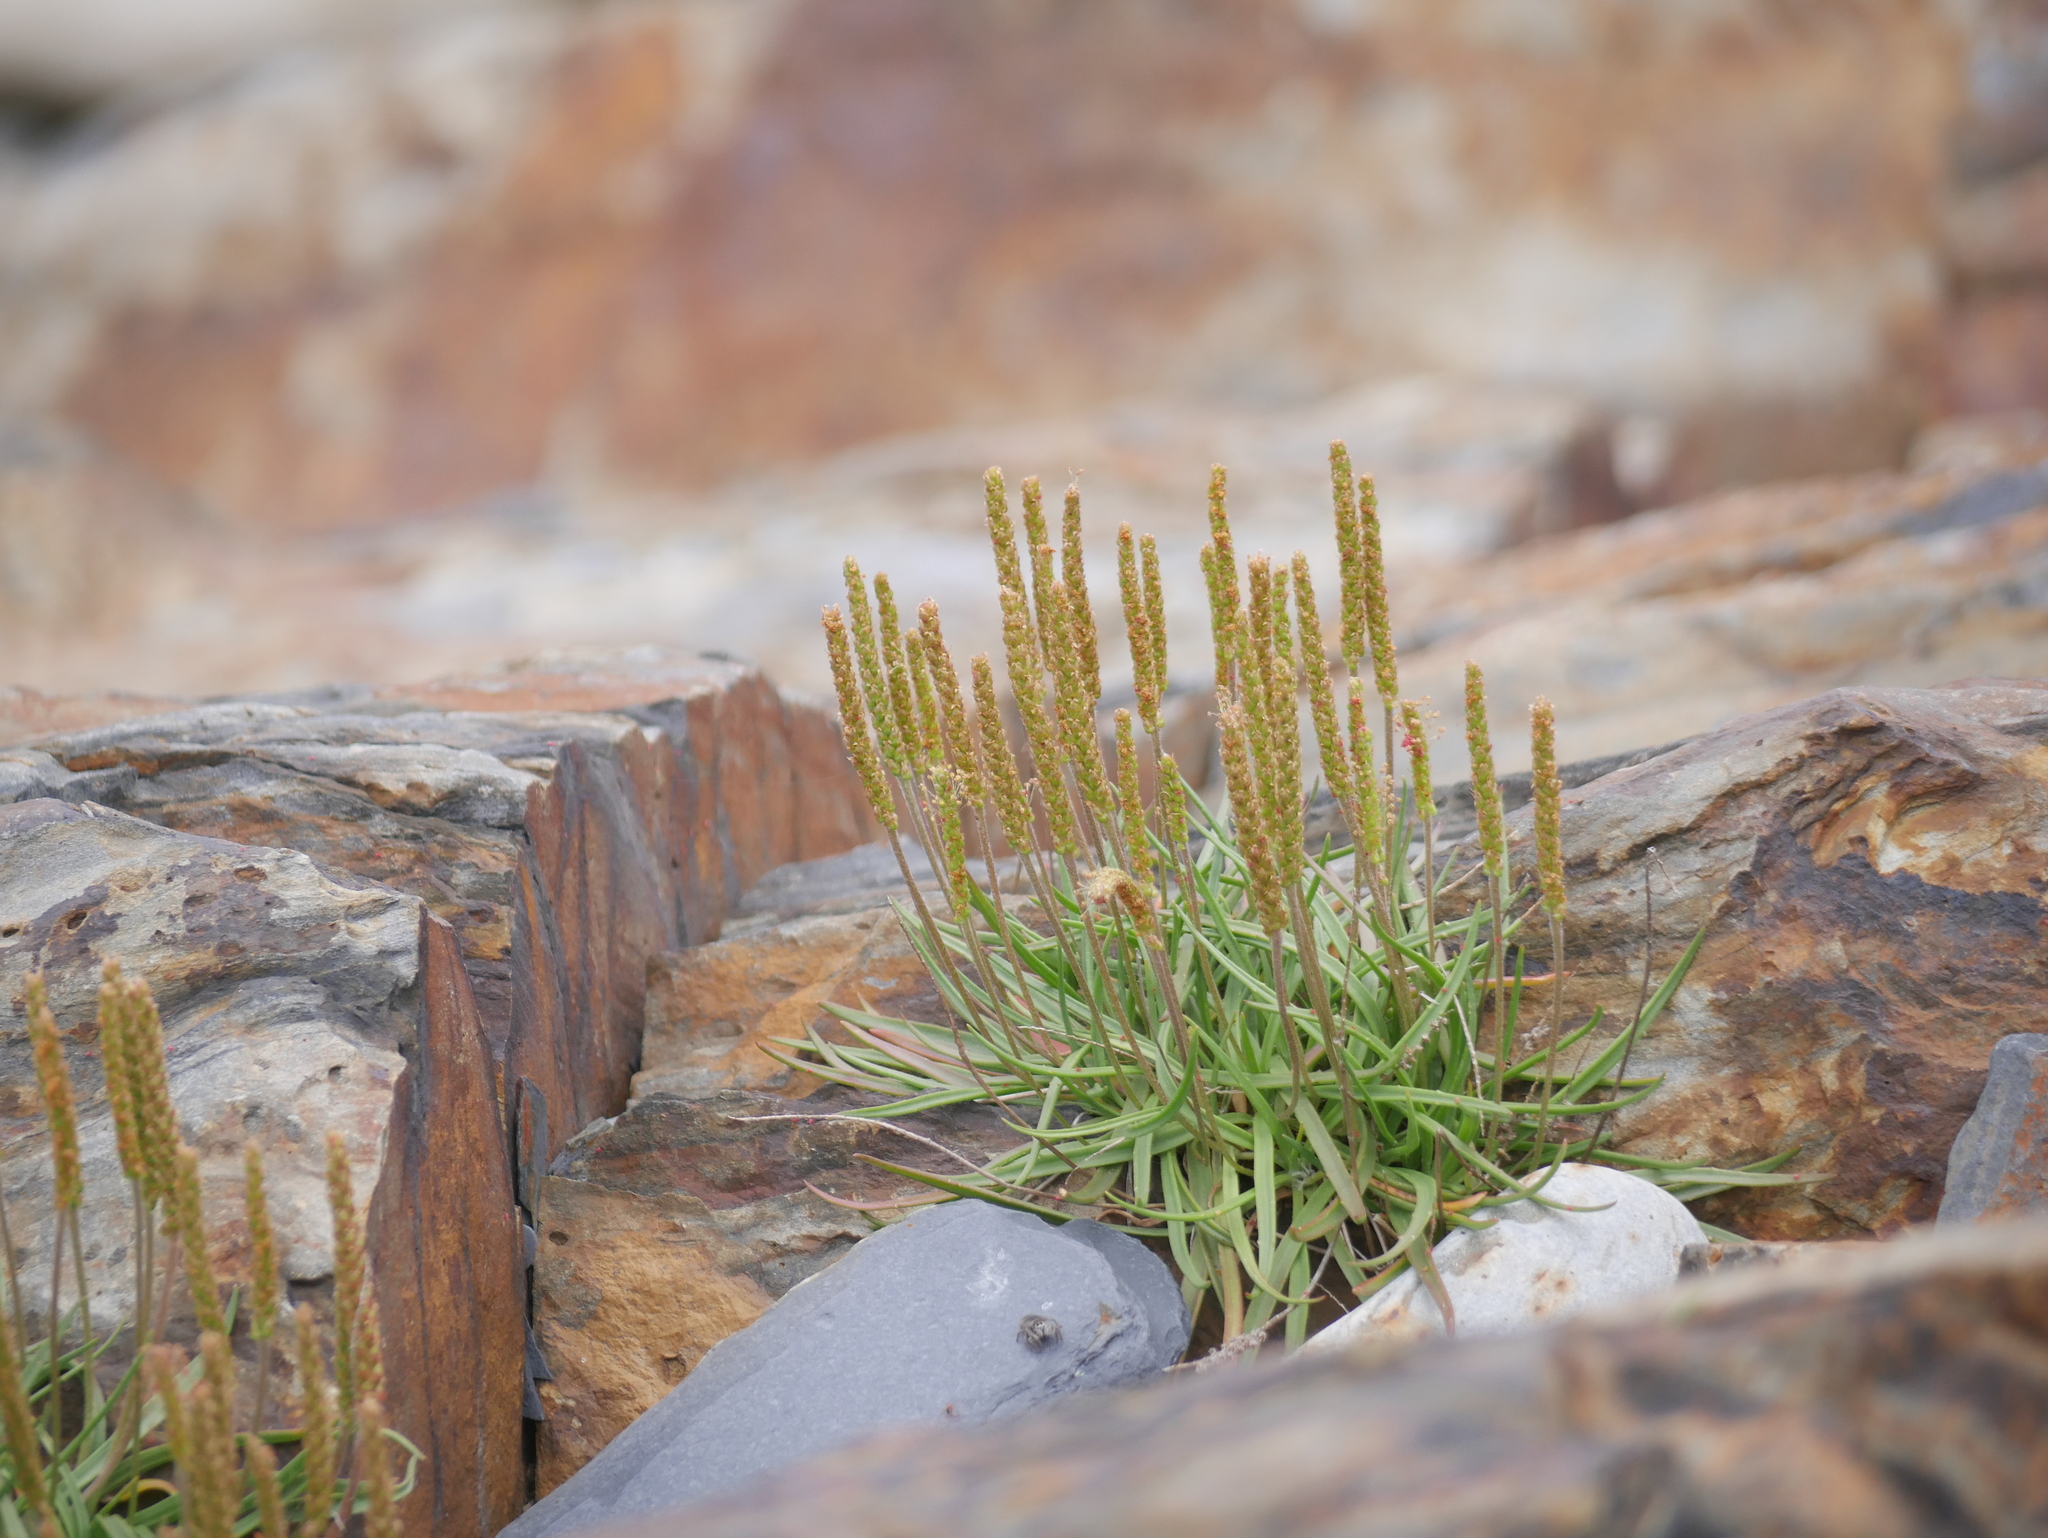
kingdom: Plantae
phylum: Tracheophyta
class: Magnoliopsida
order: Lamiales
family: Plantaginaceae
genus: Plantago
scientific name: Plantago maritima
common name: Sea plantain
